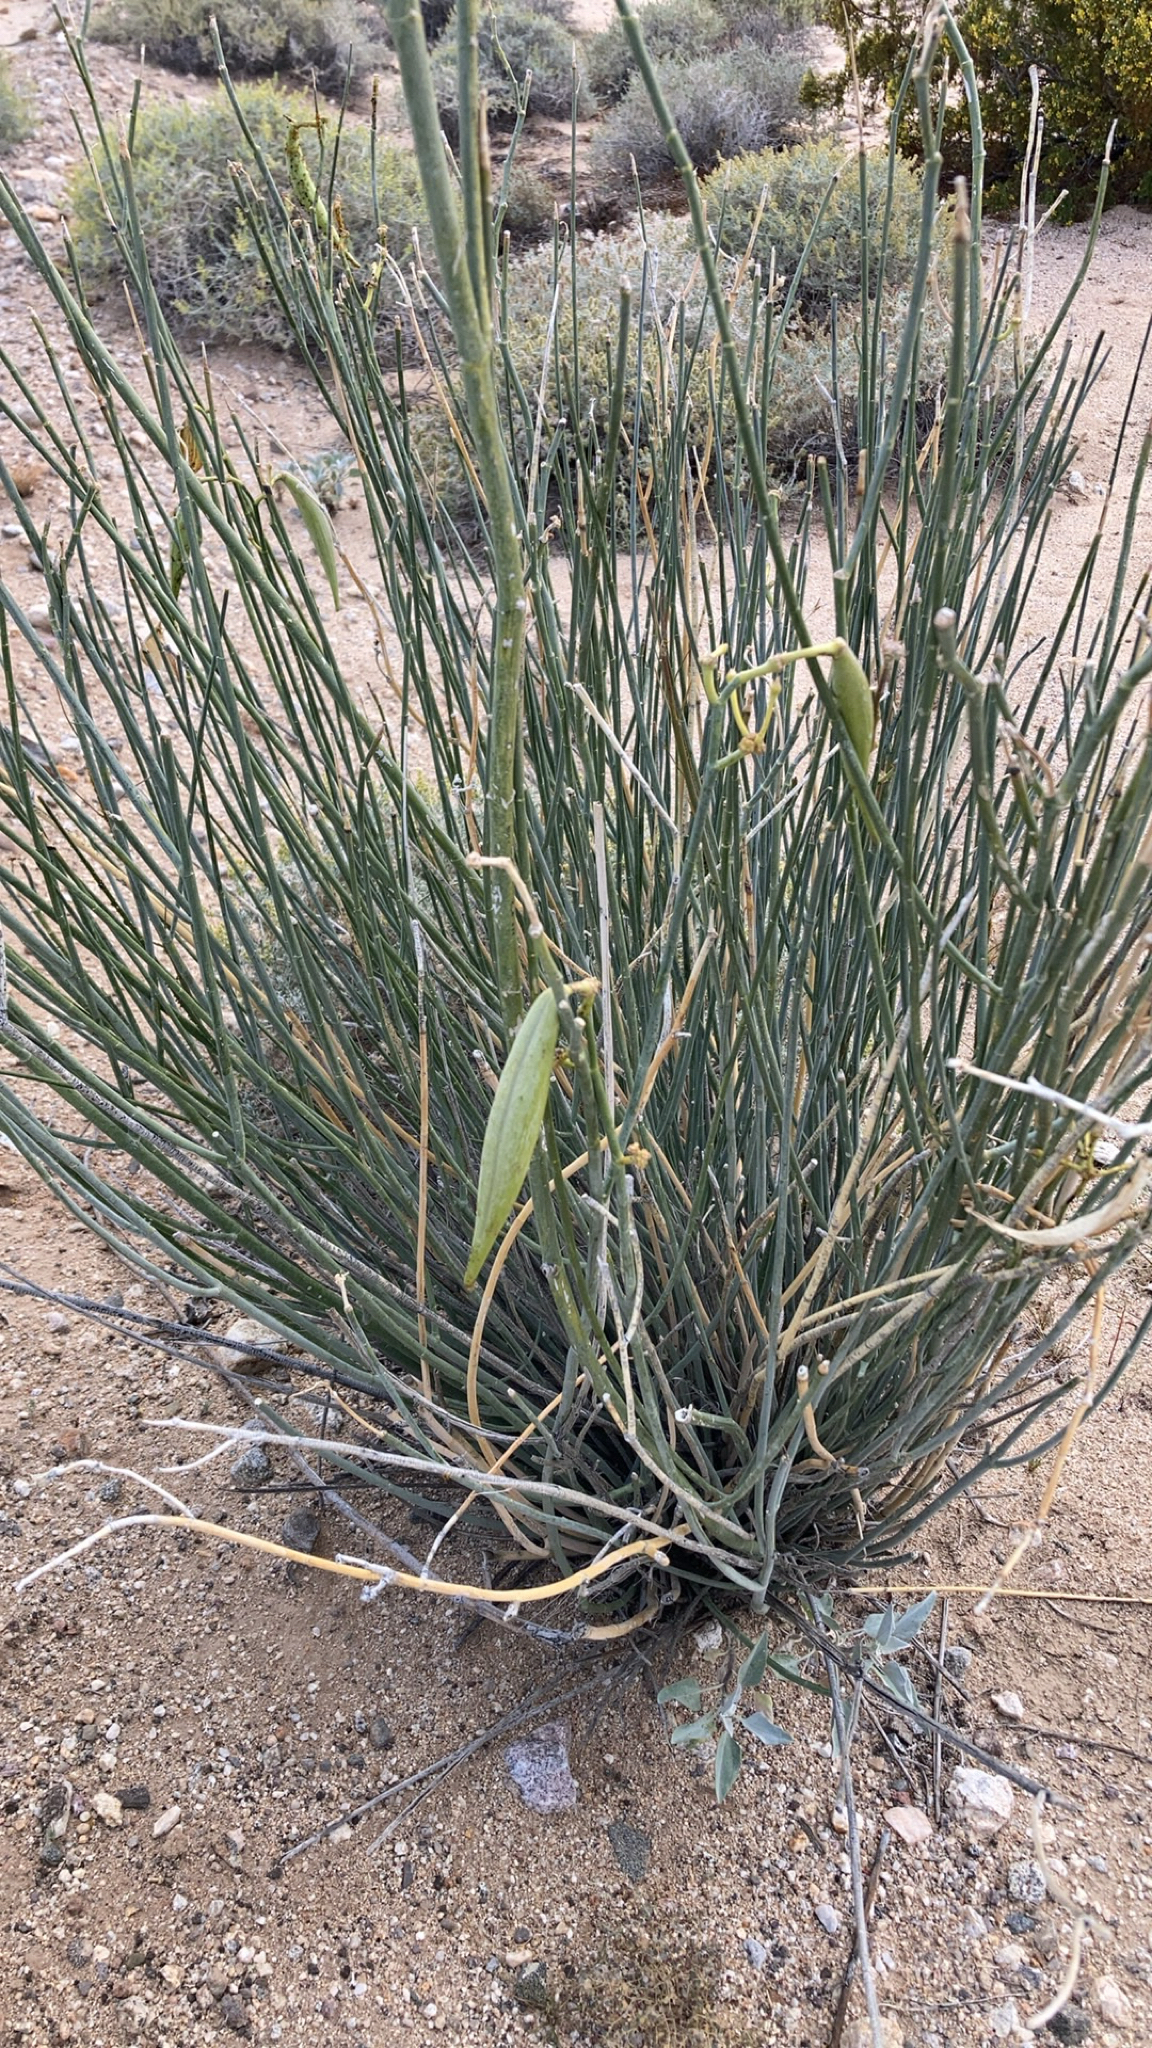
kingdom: Plantae
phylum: Tracheophyta
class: Magnoliopsida
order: Gentianales
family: Apocynaceae
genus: Asclepias
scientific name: Asclepias subulata
